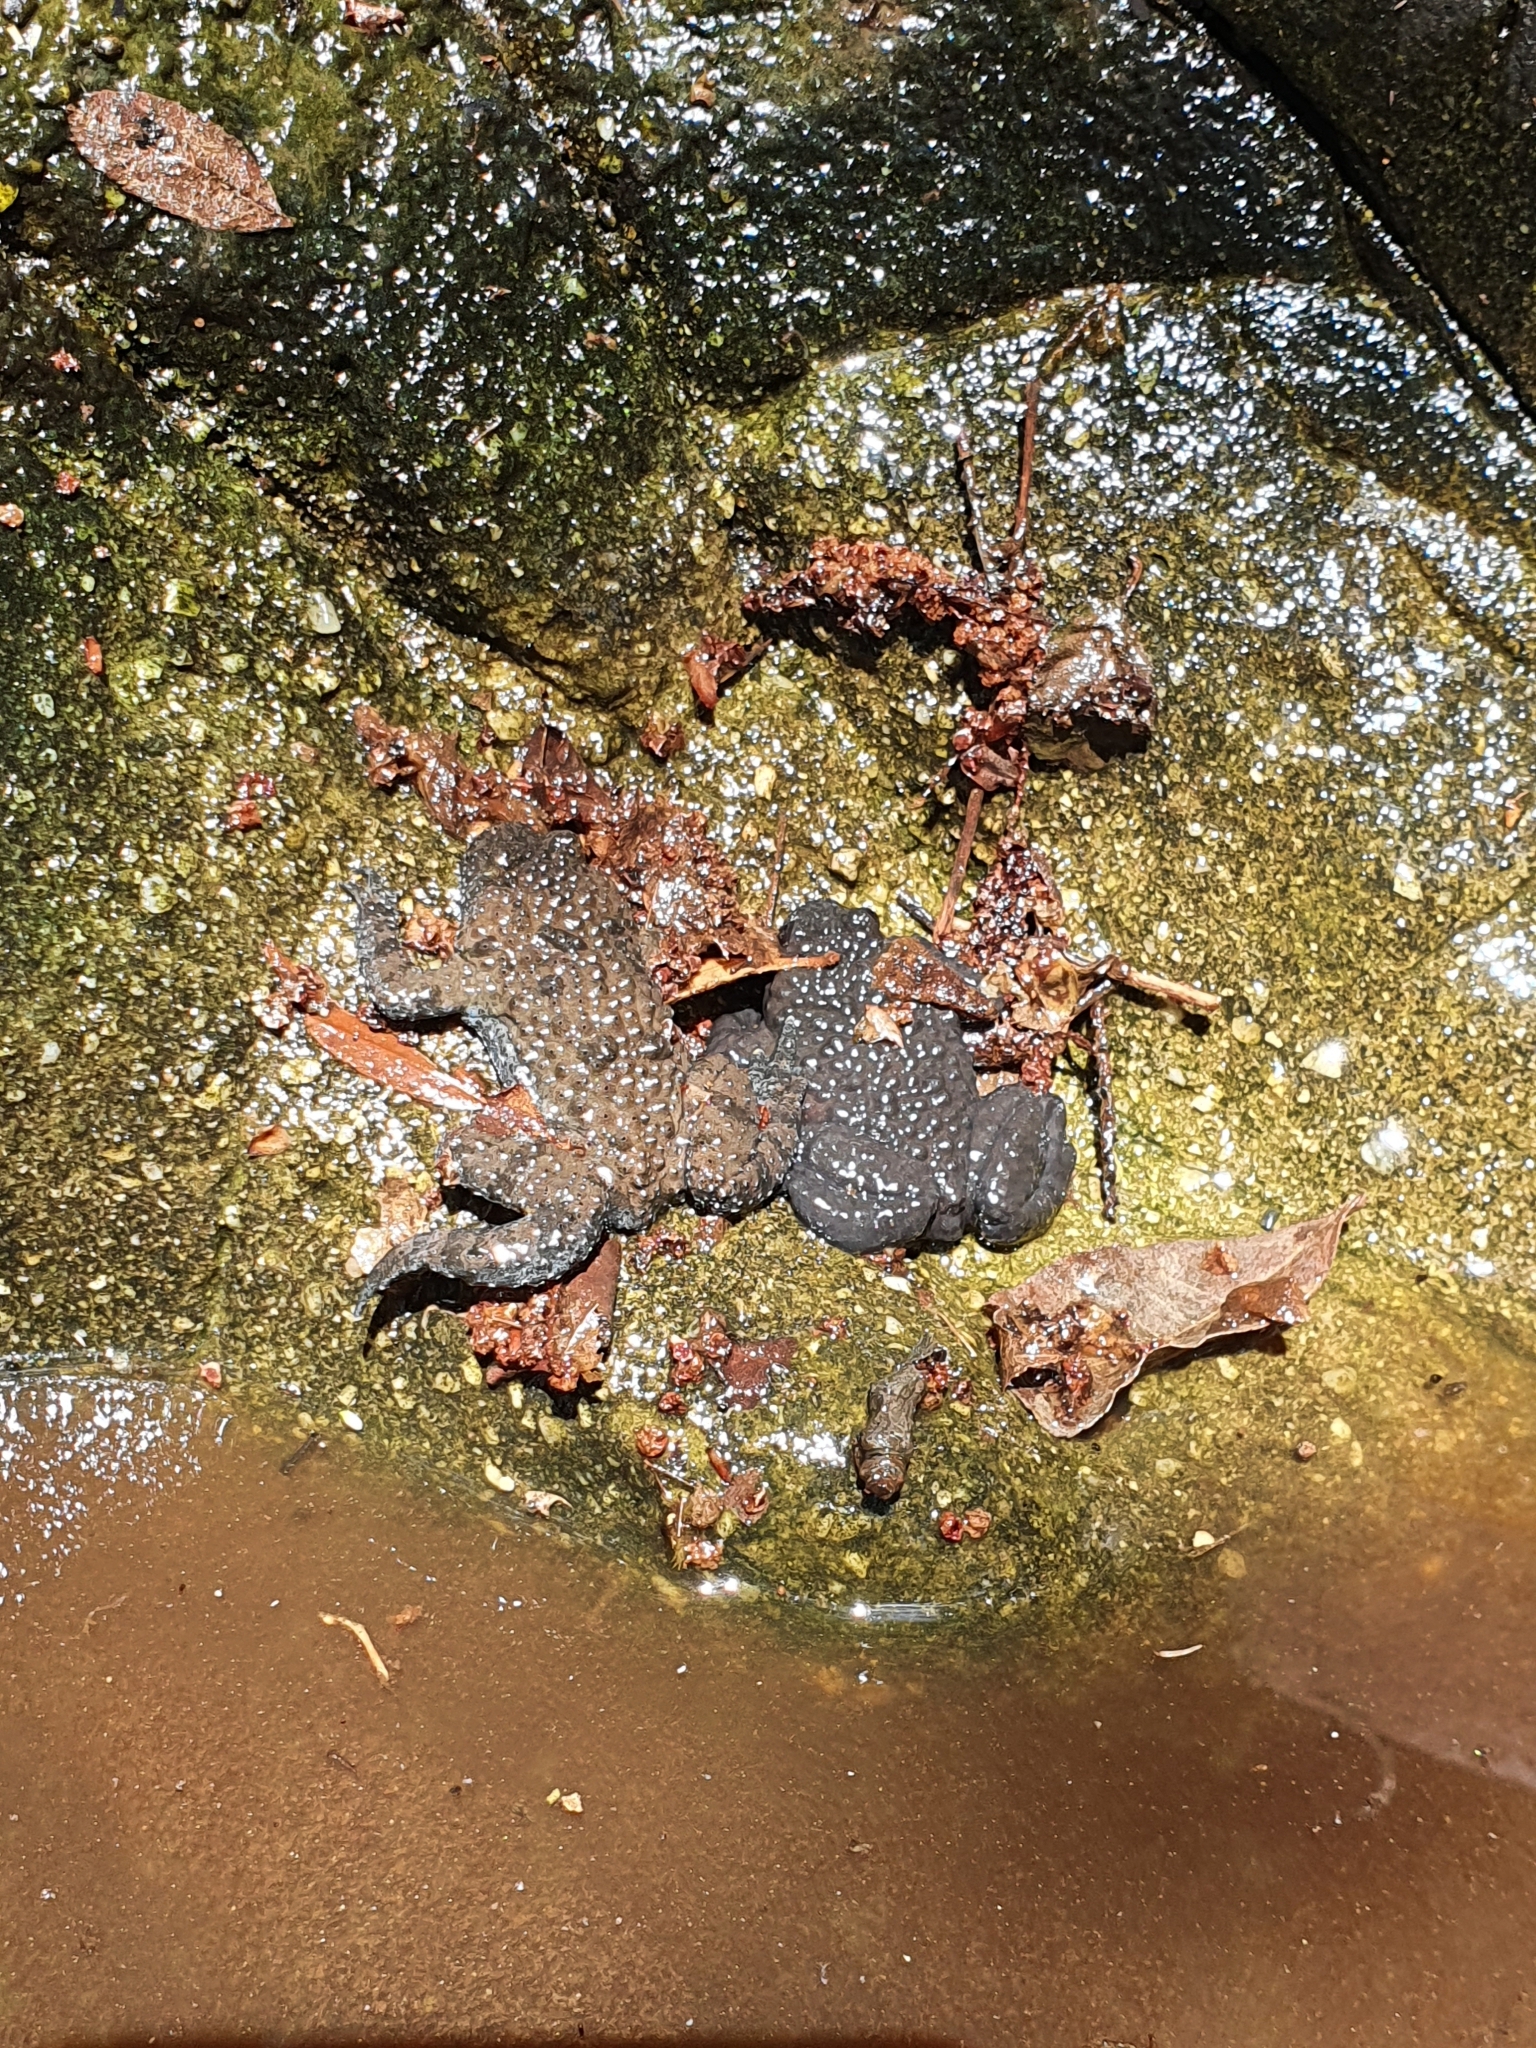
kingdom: Animalia
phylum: Chordata
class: Amphibia
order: Anura
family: Bombinatoridae
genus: Bombina
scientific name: Bombina variegata
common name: Yellow-bellied toad
